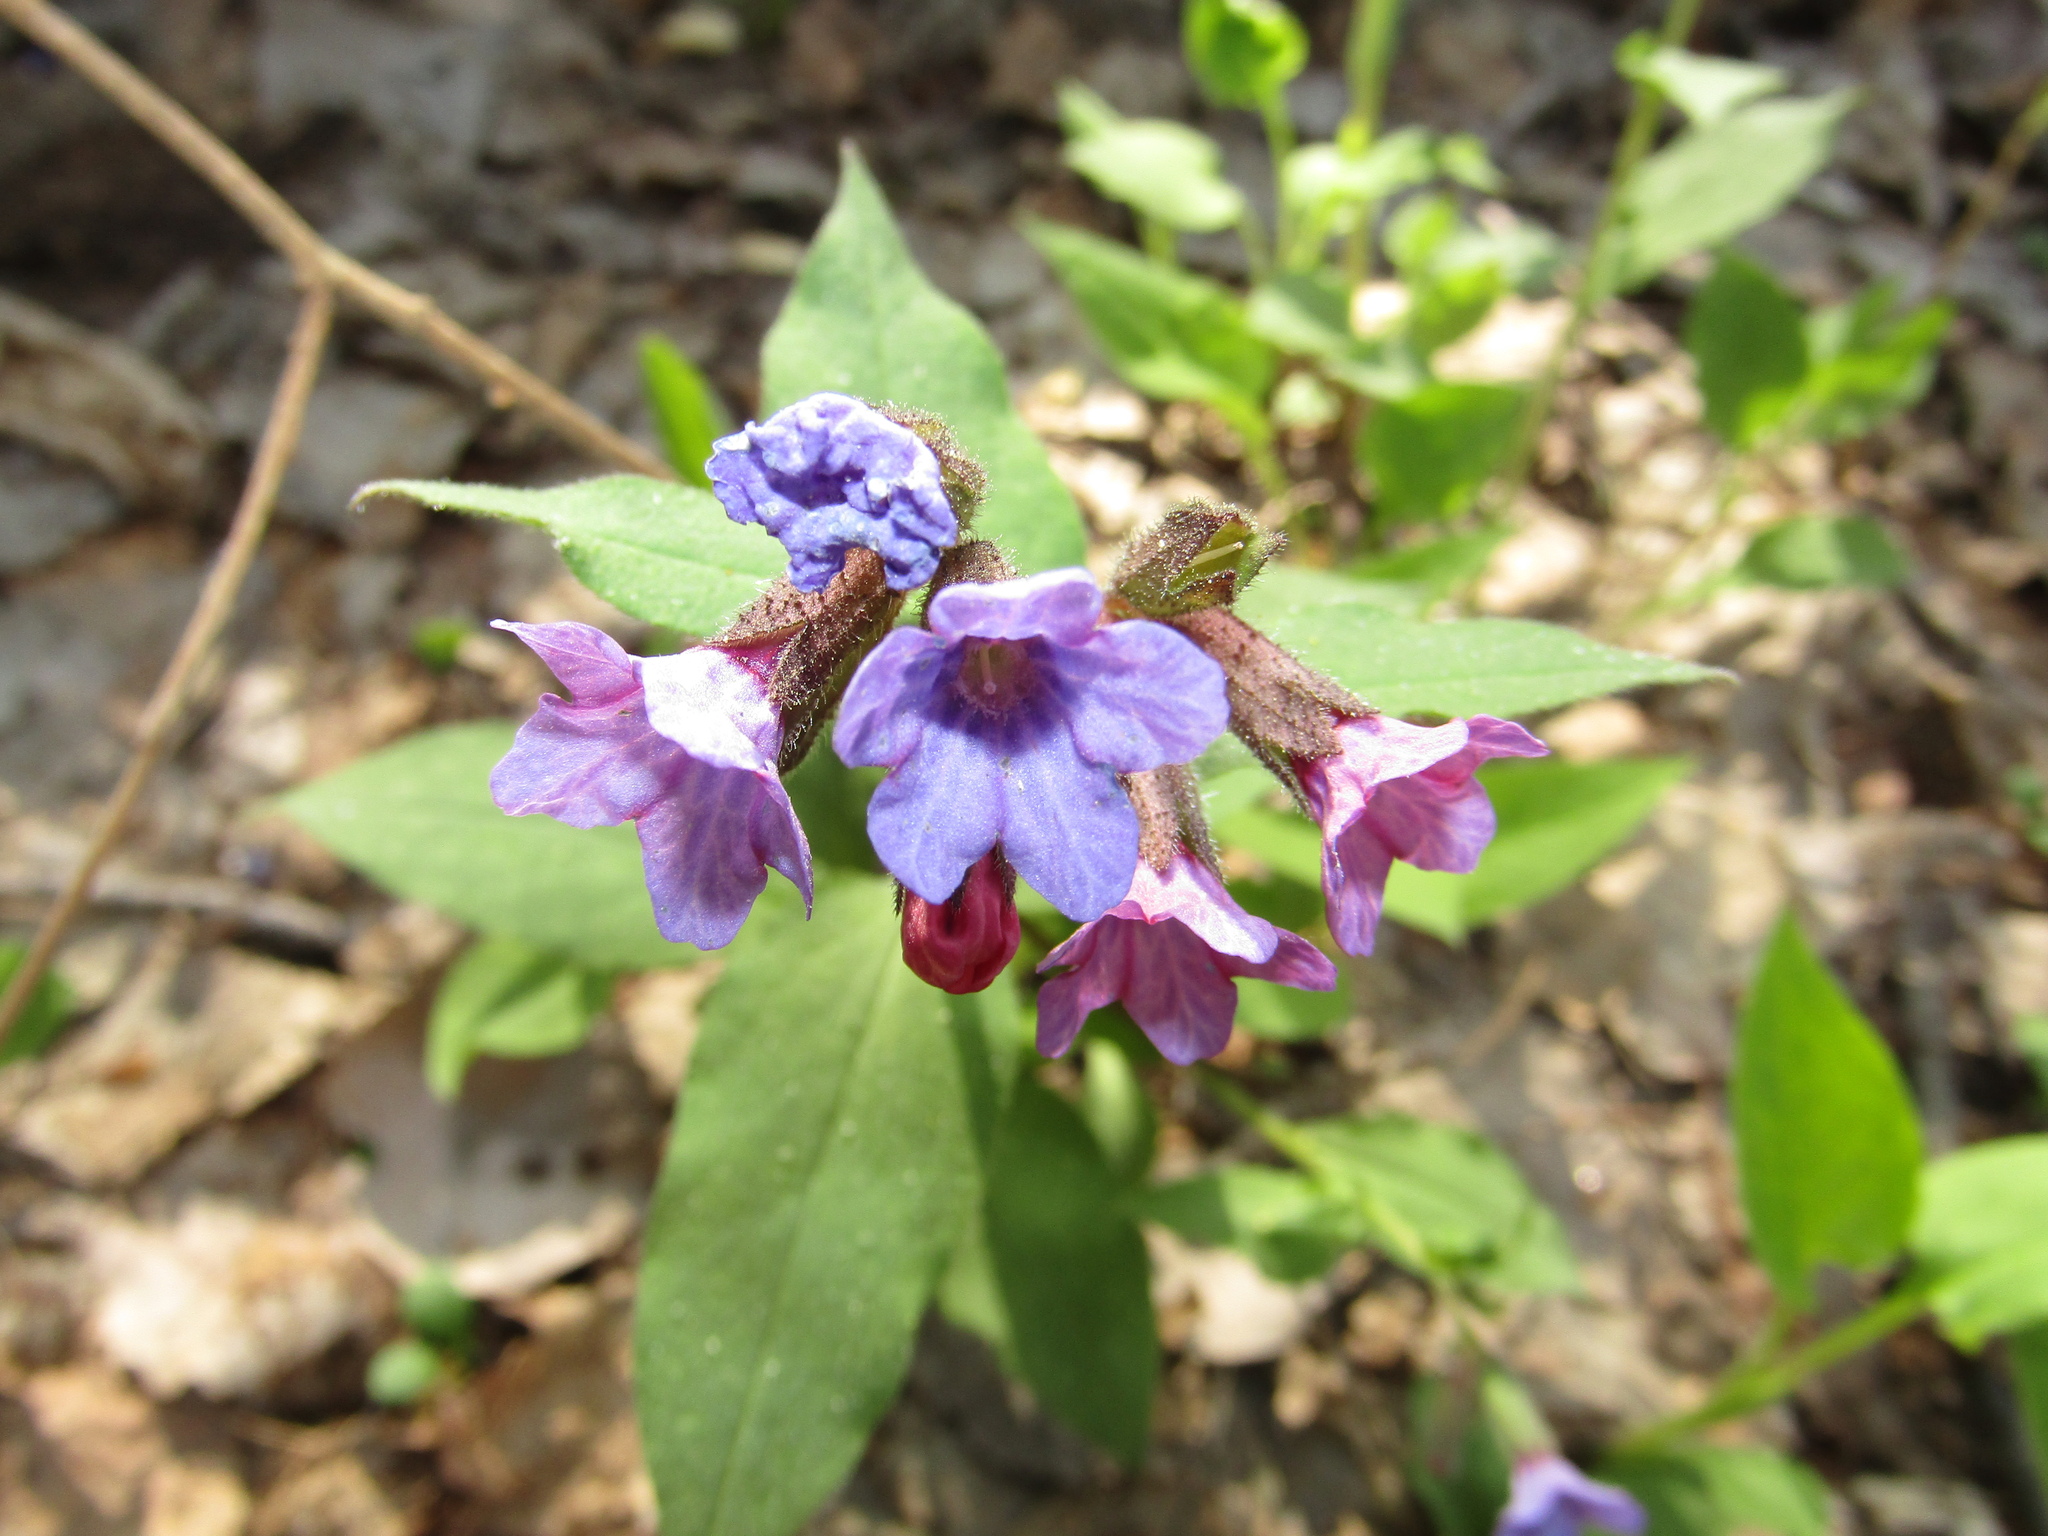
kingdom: Plantae
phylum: Tracheophyta
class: Magnoliopsida
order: Boraginales
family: Boraginaceae
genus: Pulmonaria
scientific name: Pulmonaria obscura
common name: Suffolk lungwort
